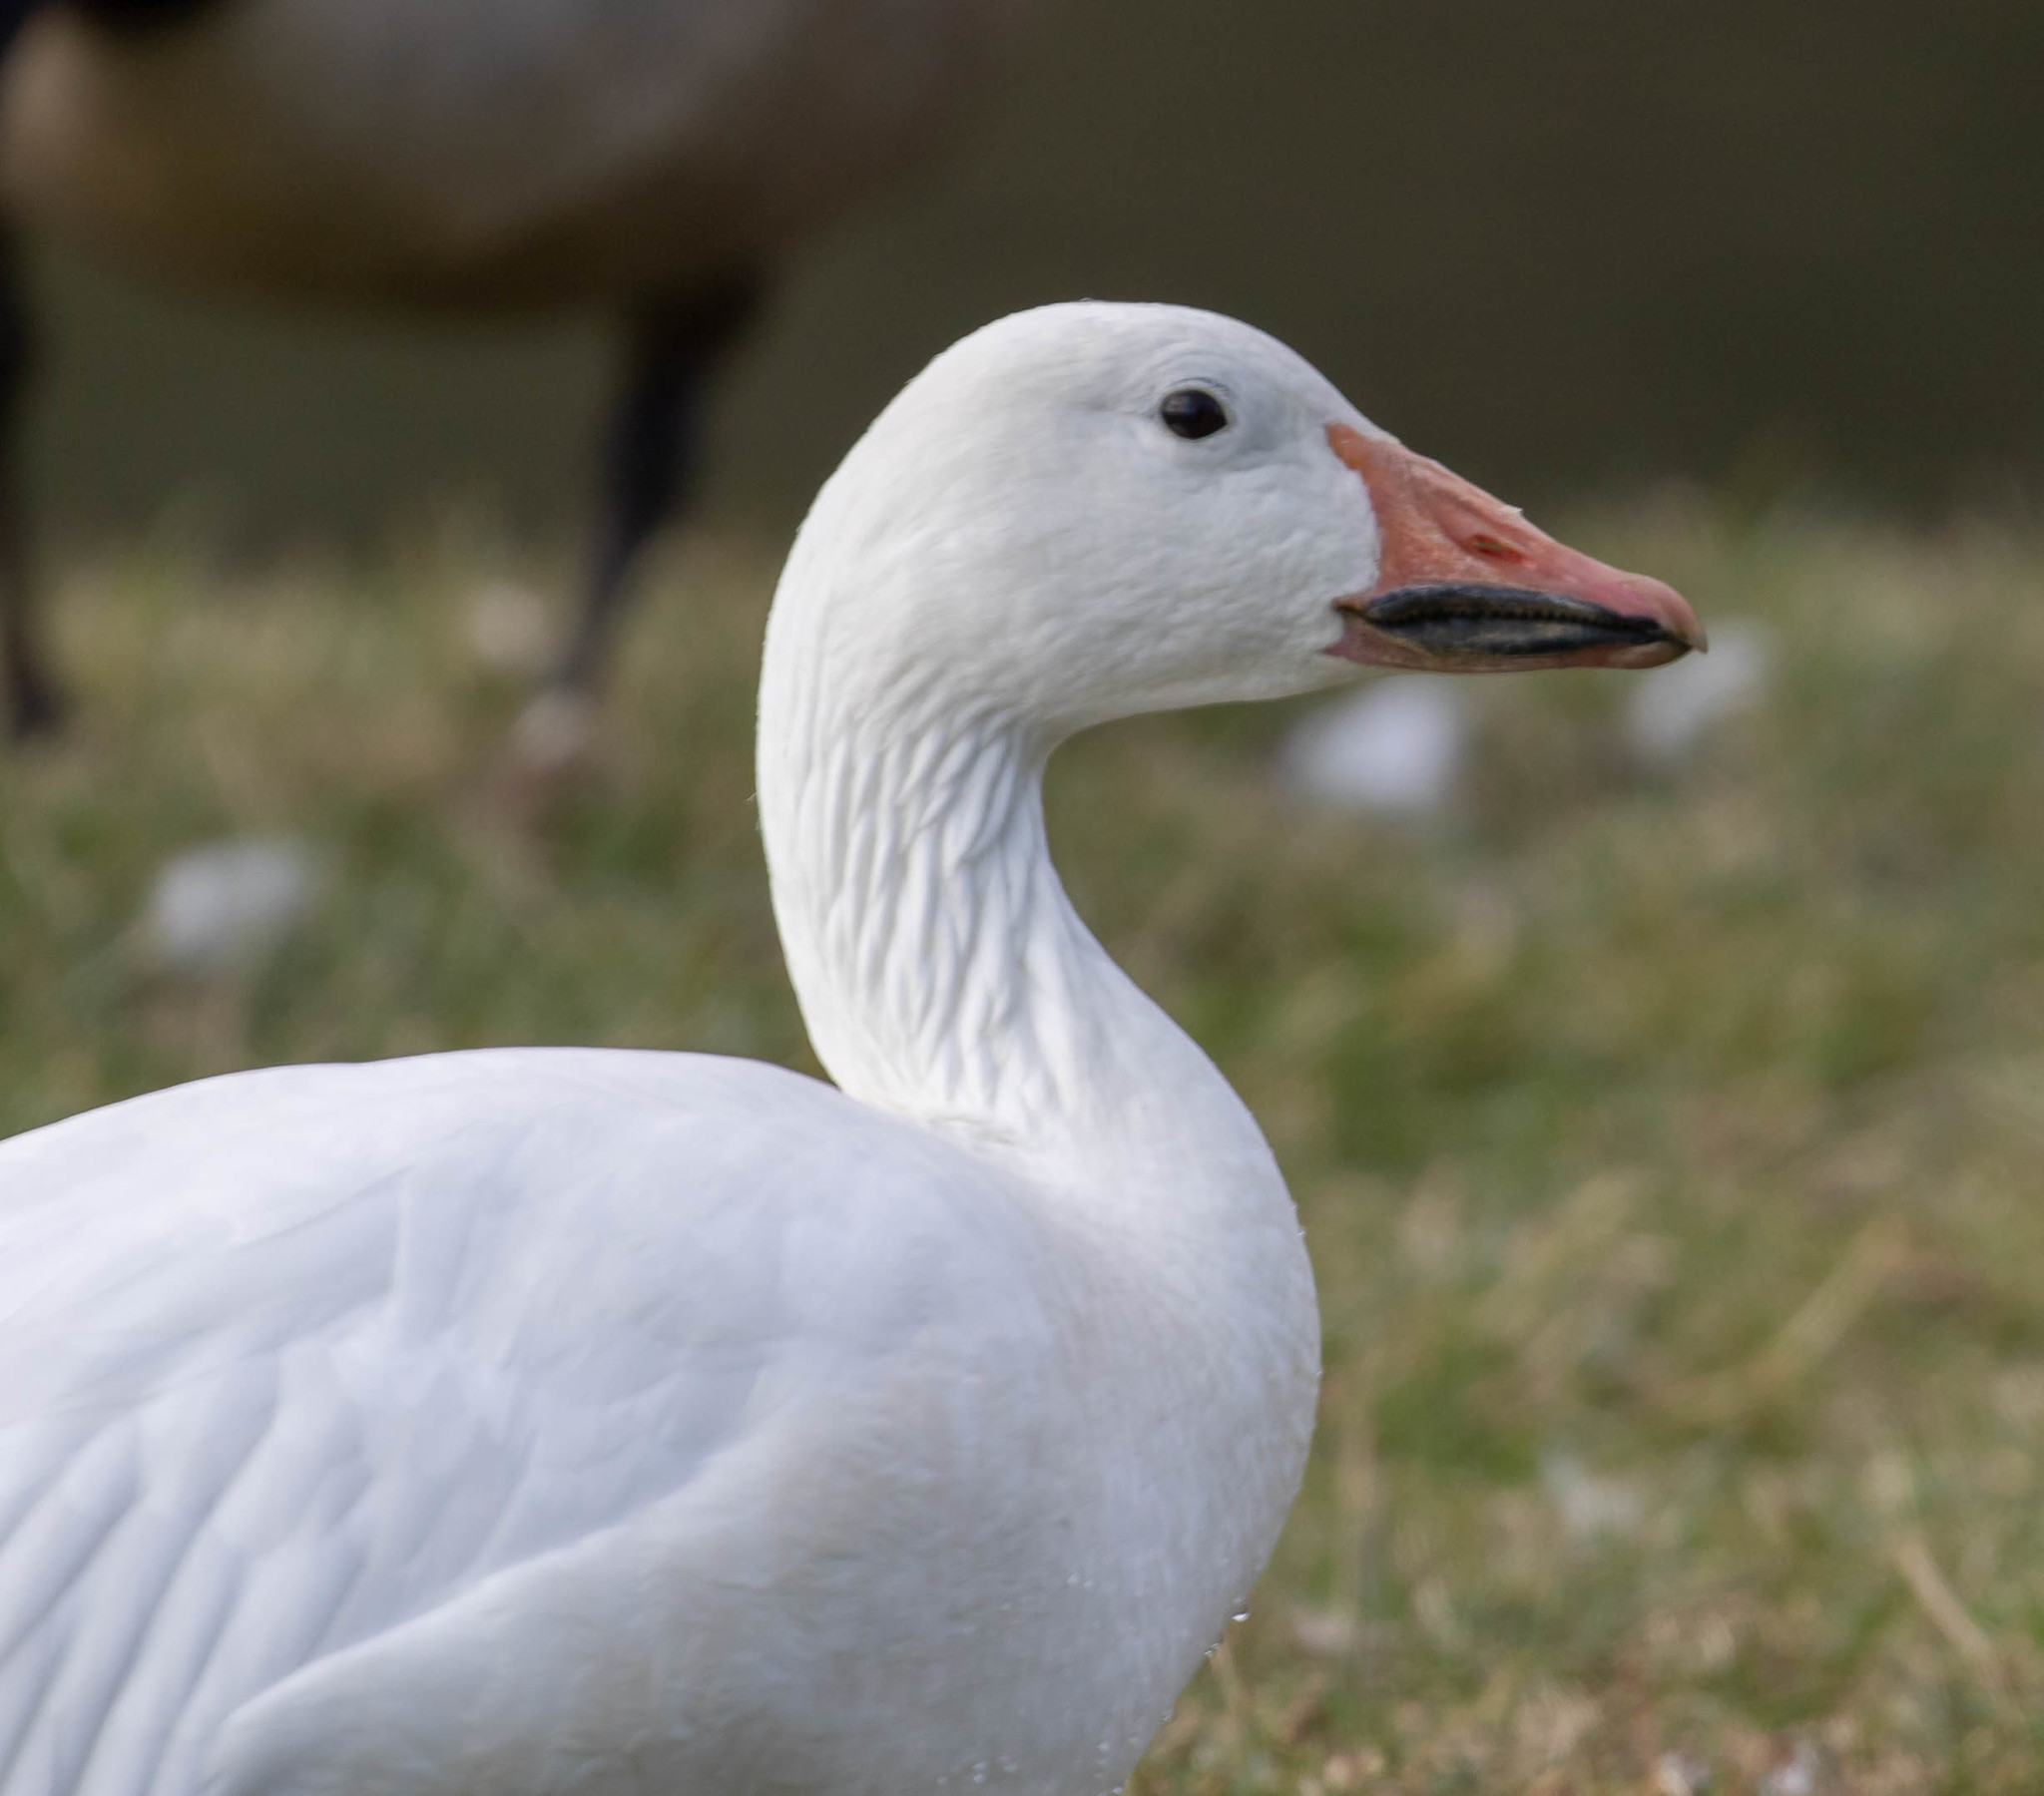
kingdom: Animalia
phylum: Chordata
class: Aves
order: Anseriformes
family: Anatidae
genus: Anser
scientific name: Anser caerulescens
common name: Snow goose
